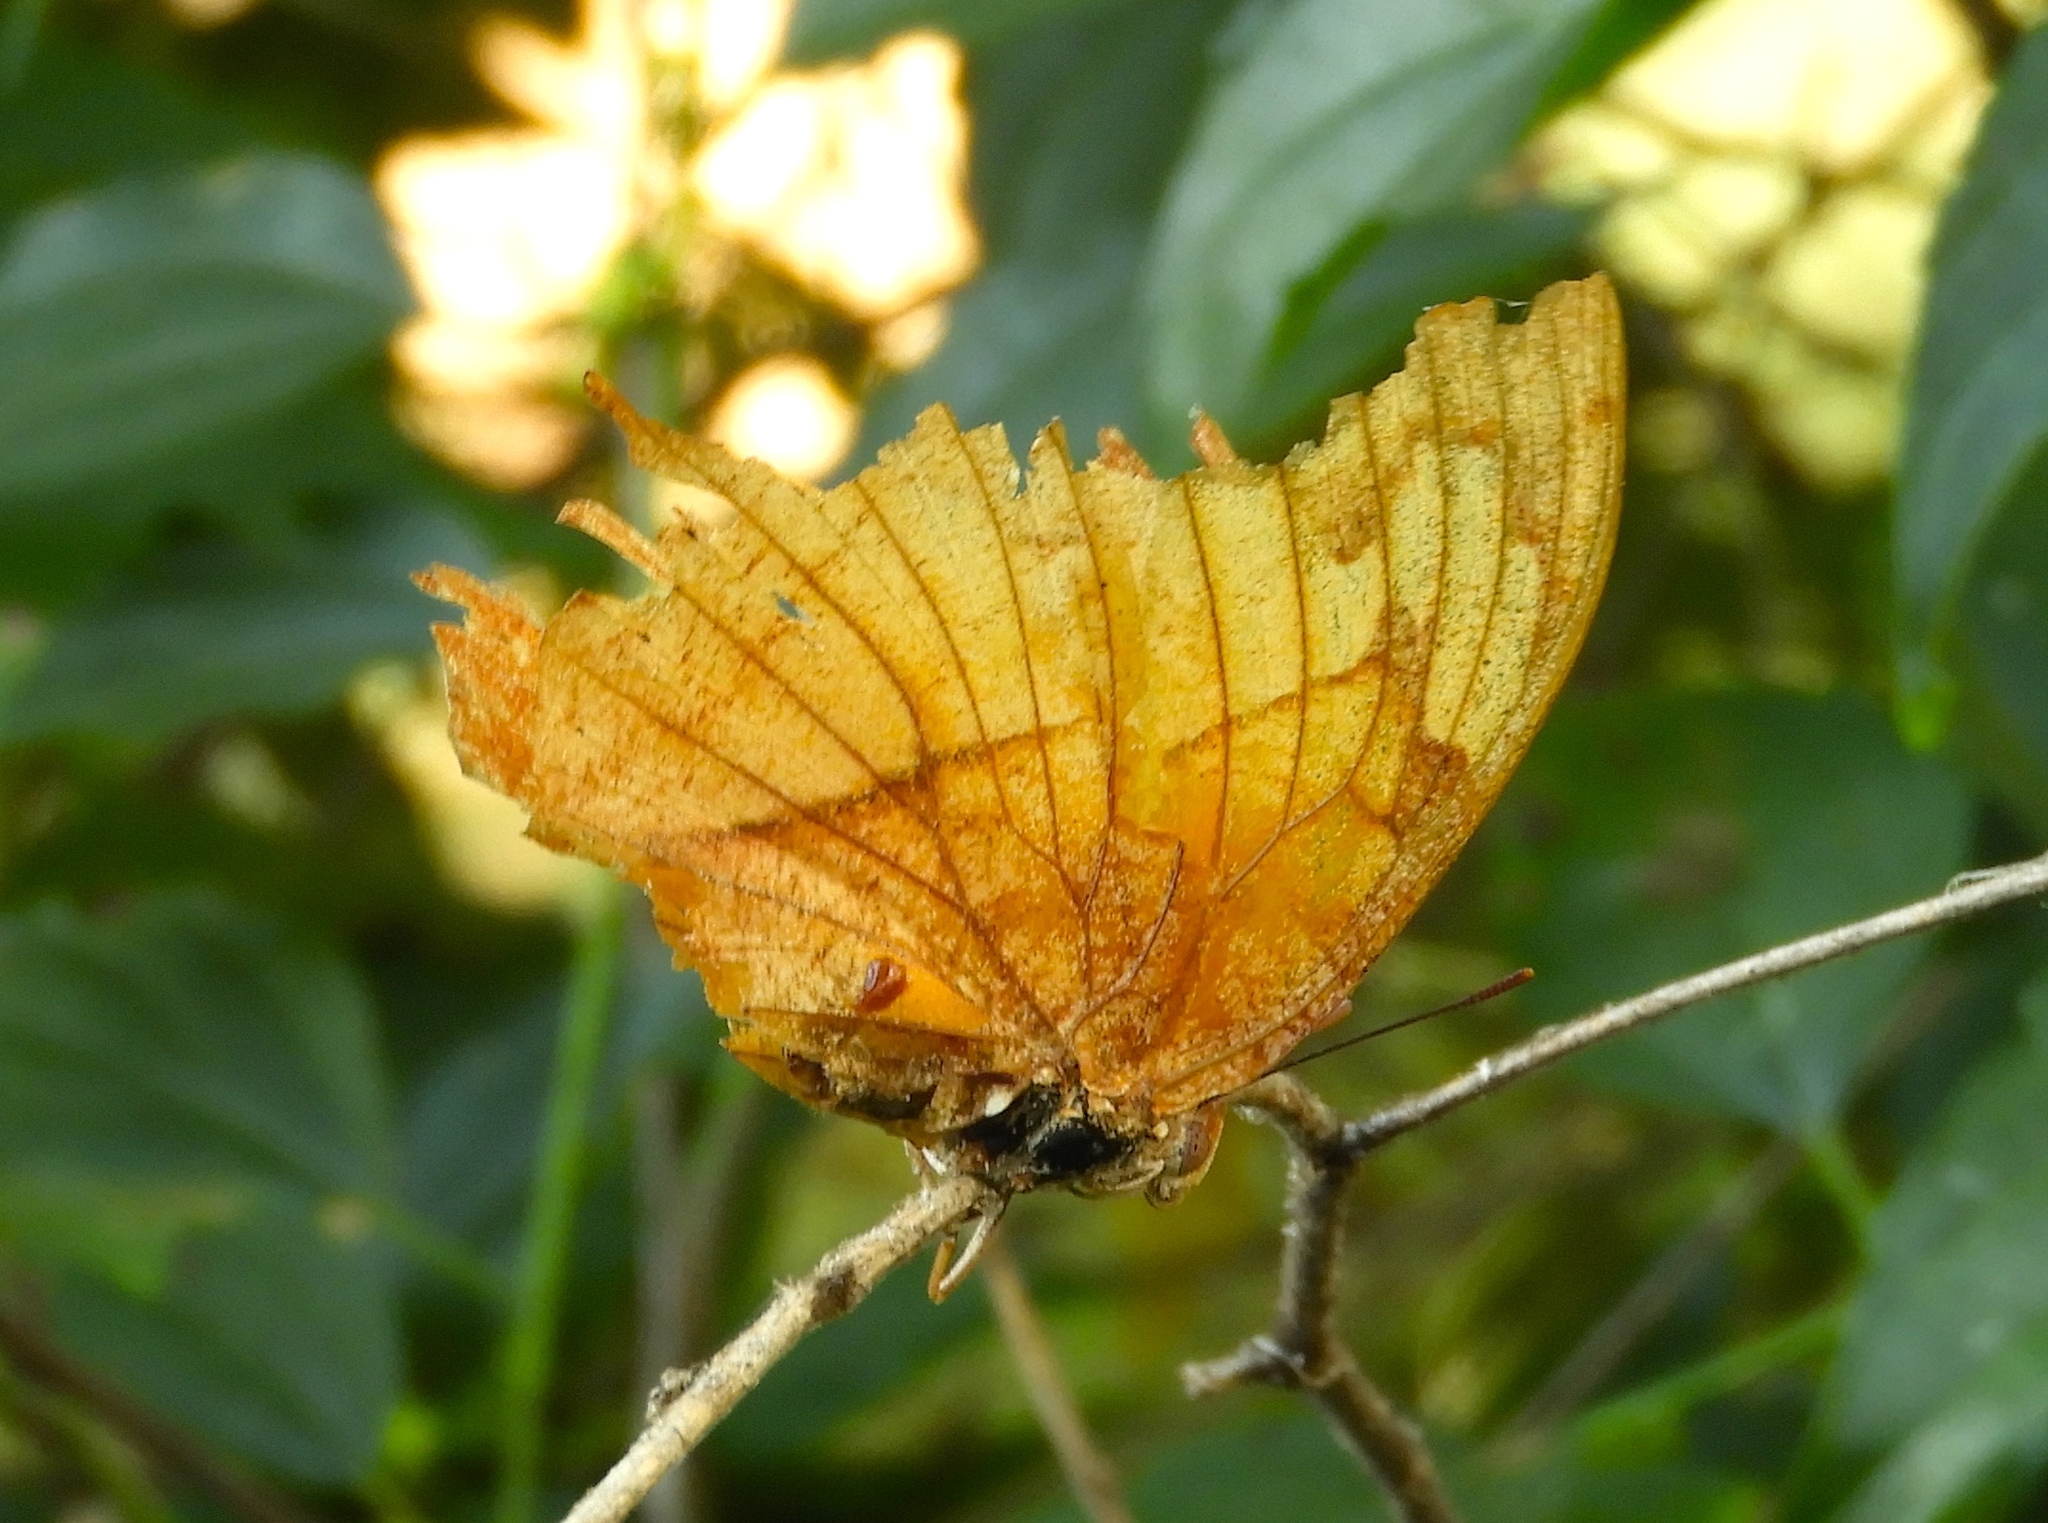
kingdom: Animalia
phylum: Arthropoda
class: Insecta
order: Lepidoptera
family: Nymphalidae
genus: Fountainea
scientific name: Fountainea
